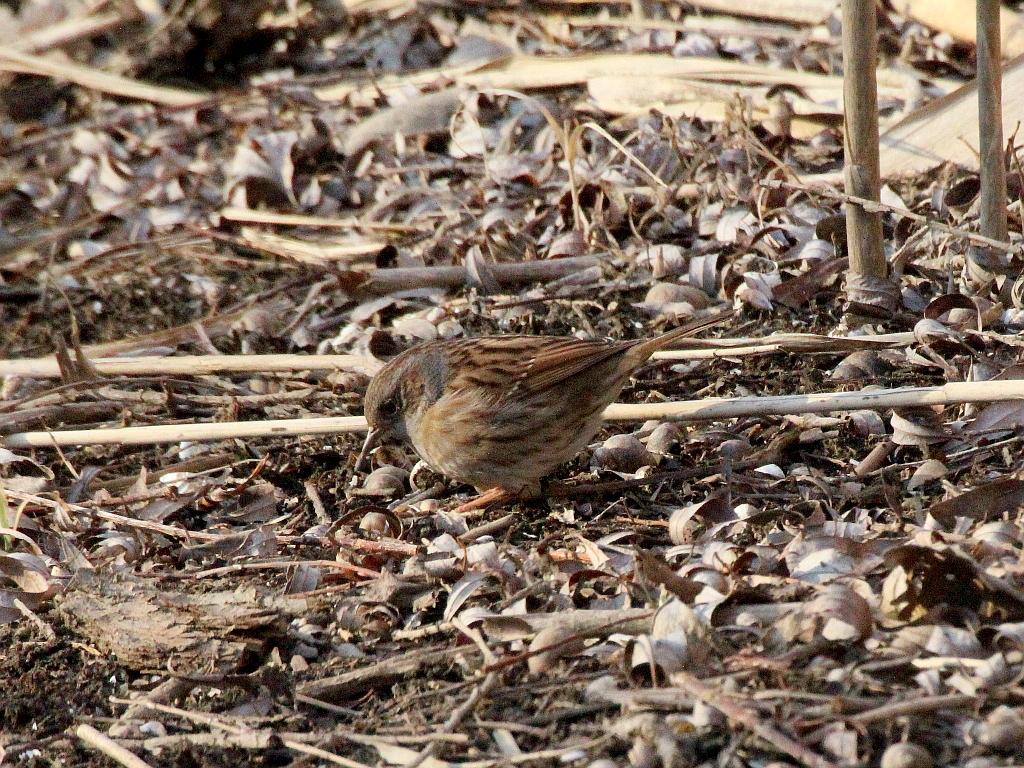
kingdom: Animalia
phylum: Chordata
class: Aves
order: Passeriformes
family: Prunellidae
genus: Prunella
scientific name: Prunella modularis
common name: Dunnock
